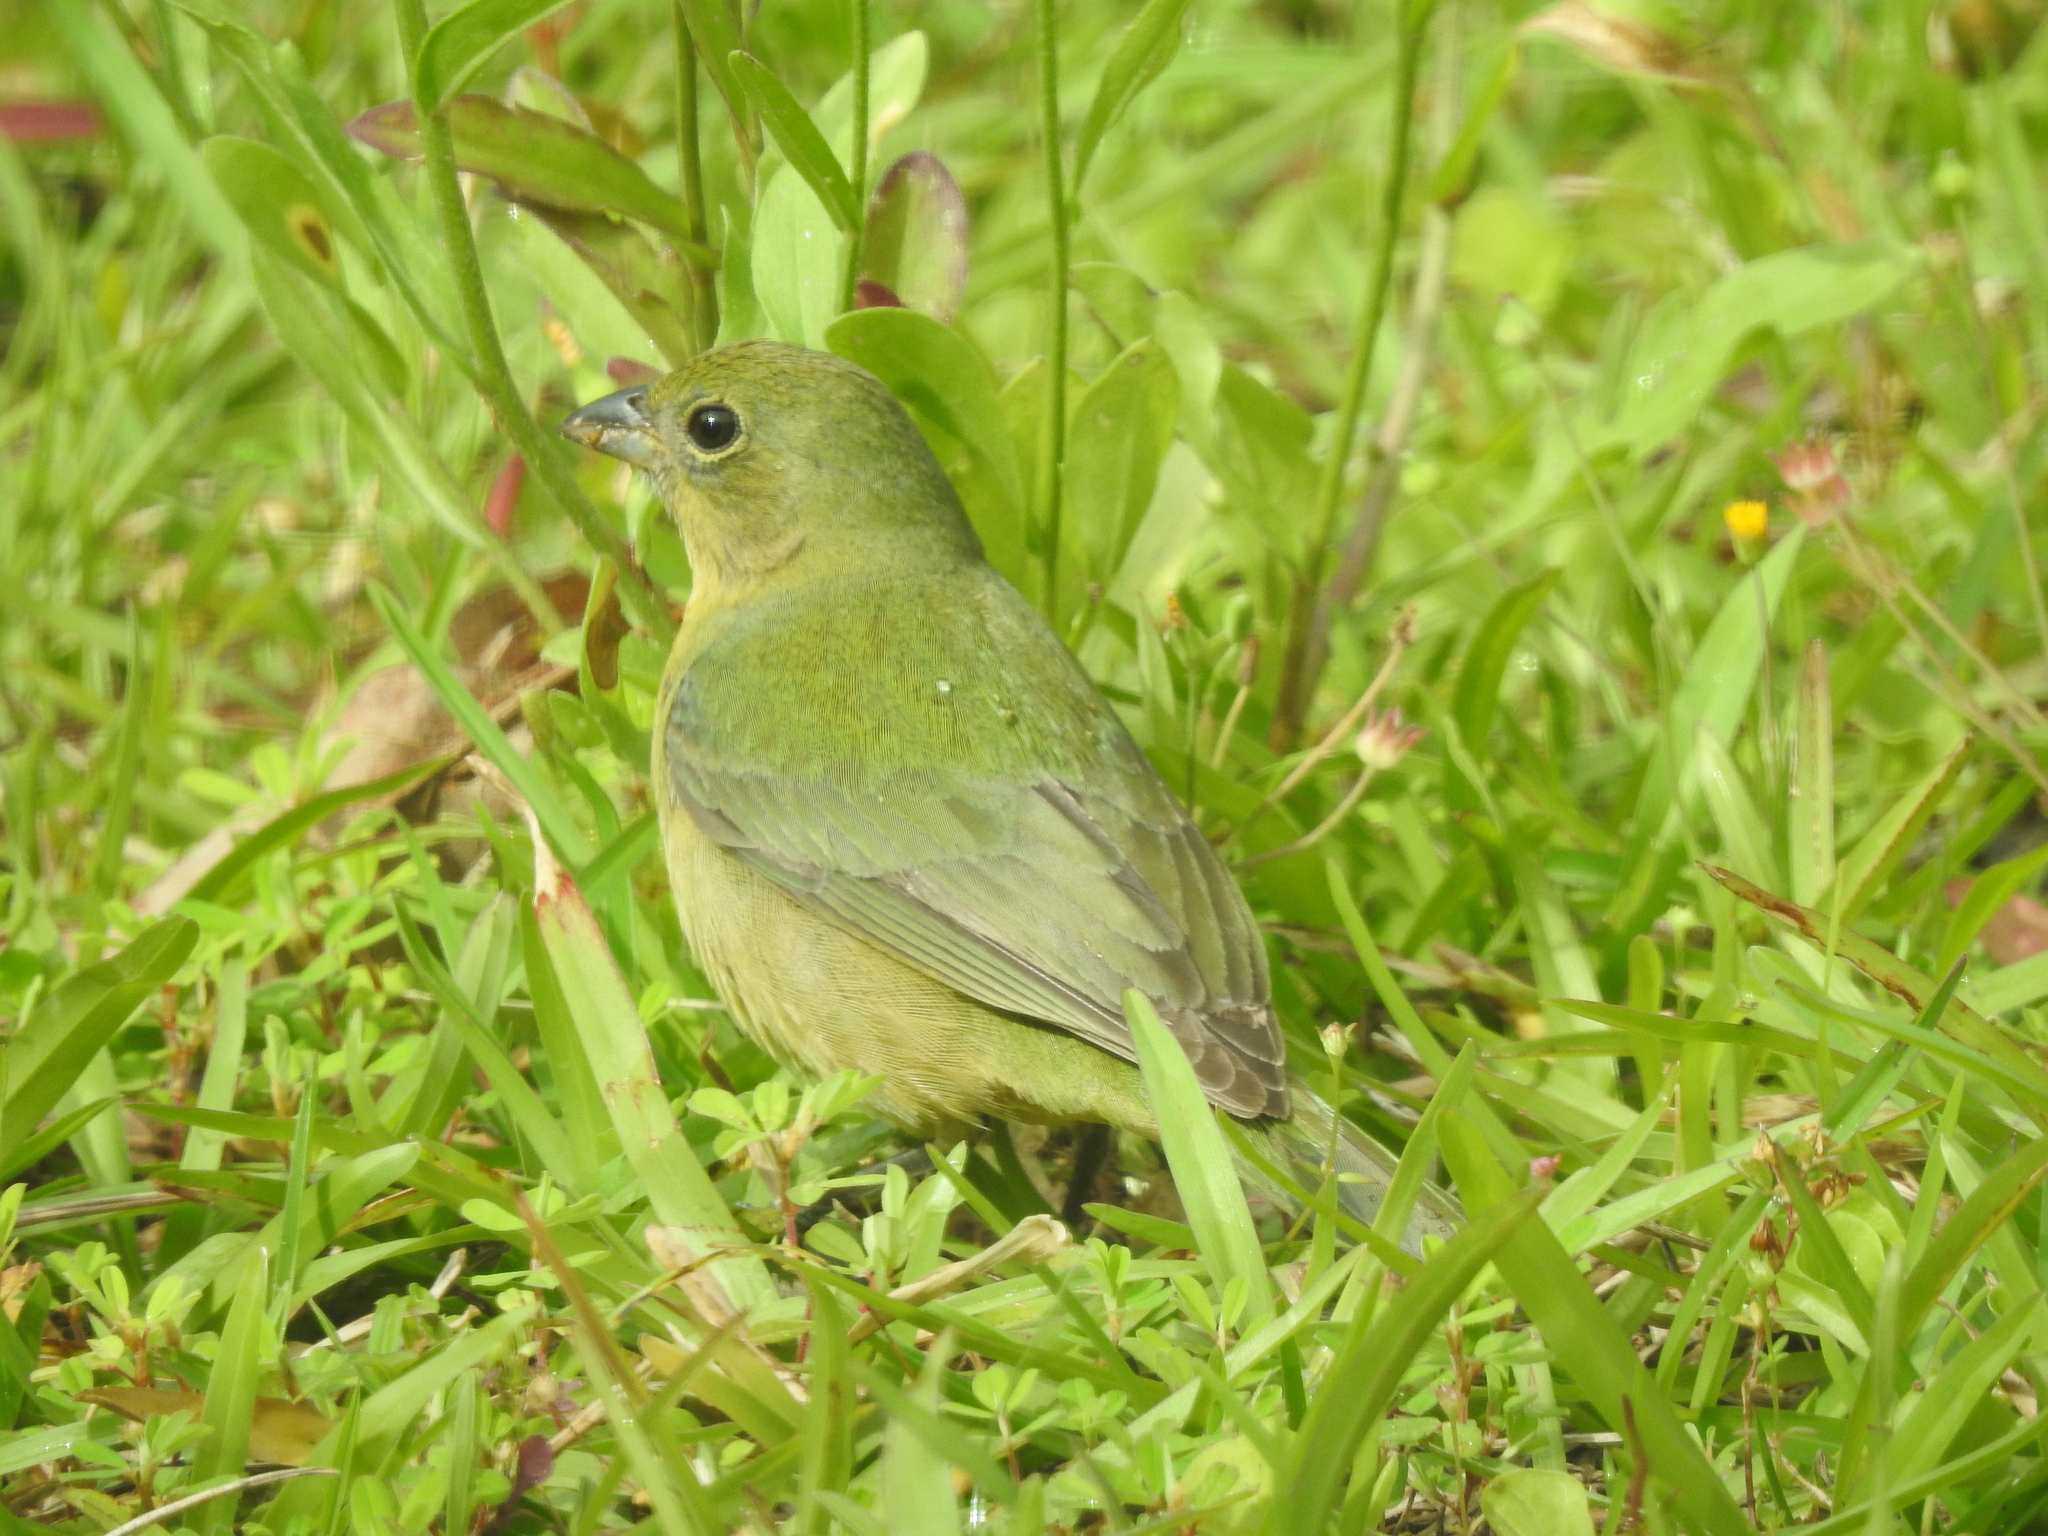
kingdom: Animalia
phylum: Chordata
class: Aves
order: Passeriformes
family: Cardinalidae
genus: Passerina
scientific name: Passerina ciris
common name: Painted bunting
